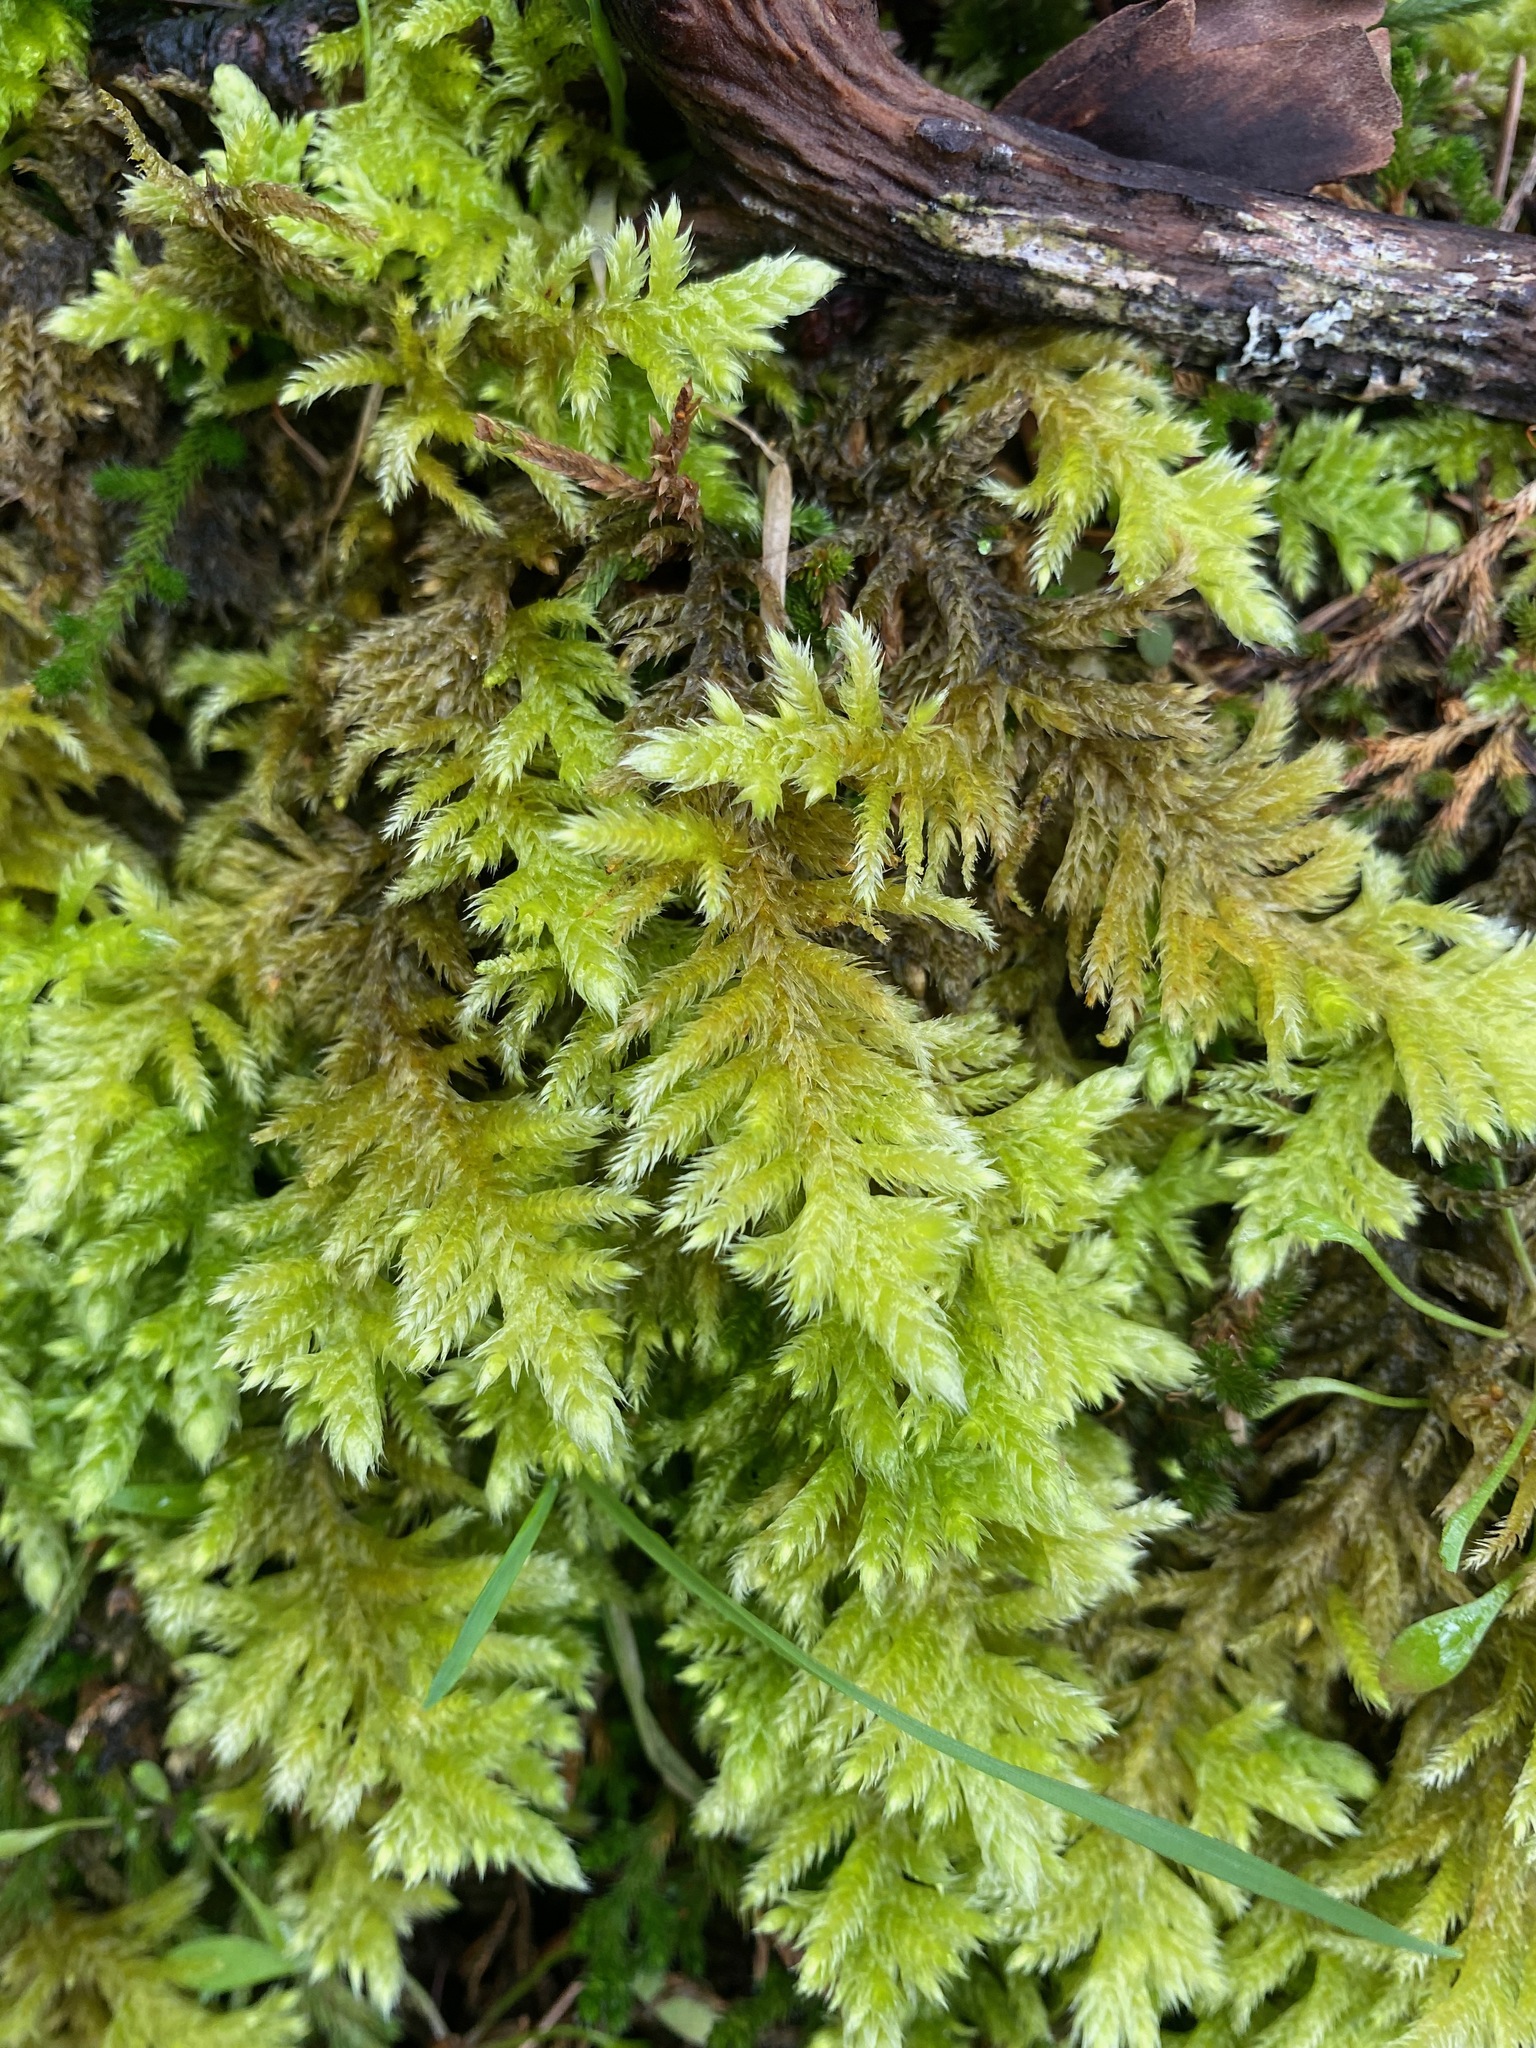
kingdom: Plantae
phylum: Bryophyta
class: Bryopsida
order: Hypnales
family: Brachytheciaceae
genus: Homalothecium
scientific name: Homalothecium megaptilum
